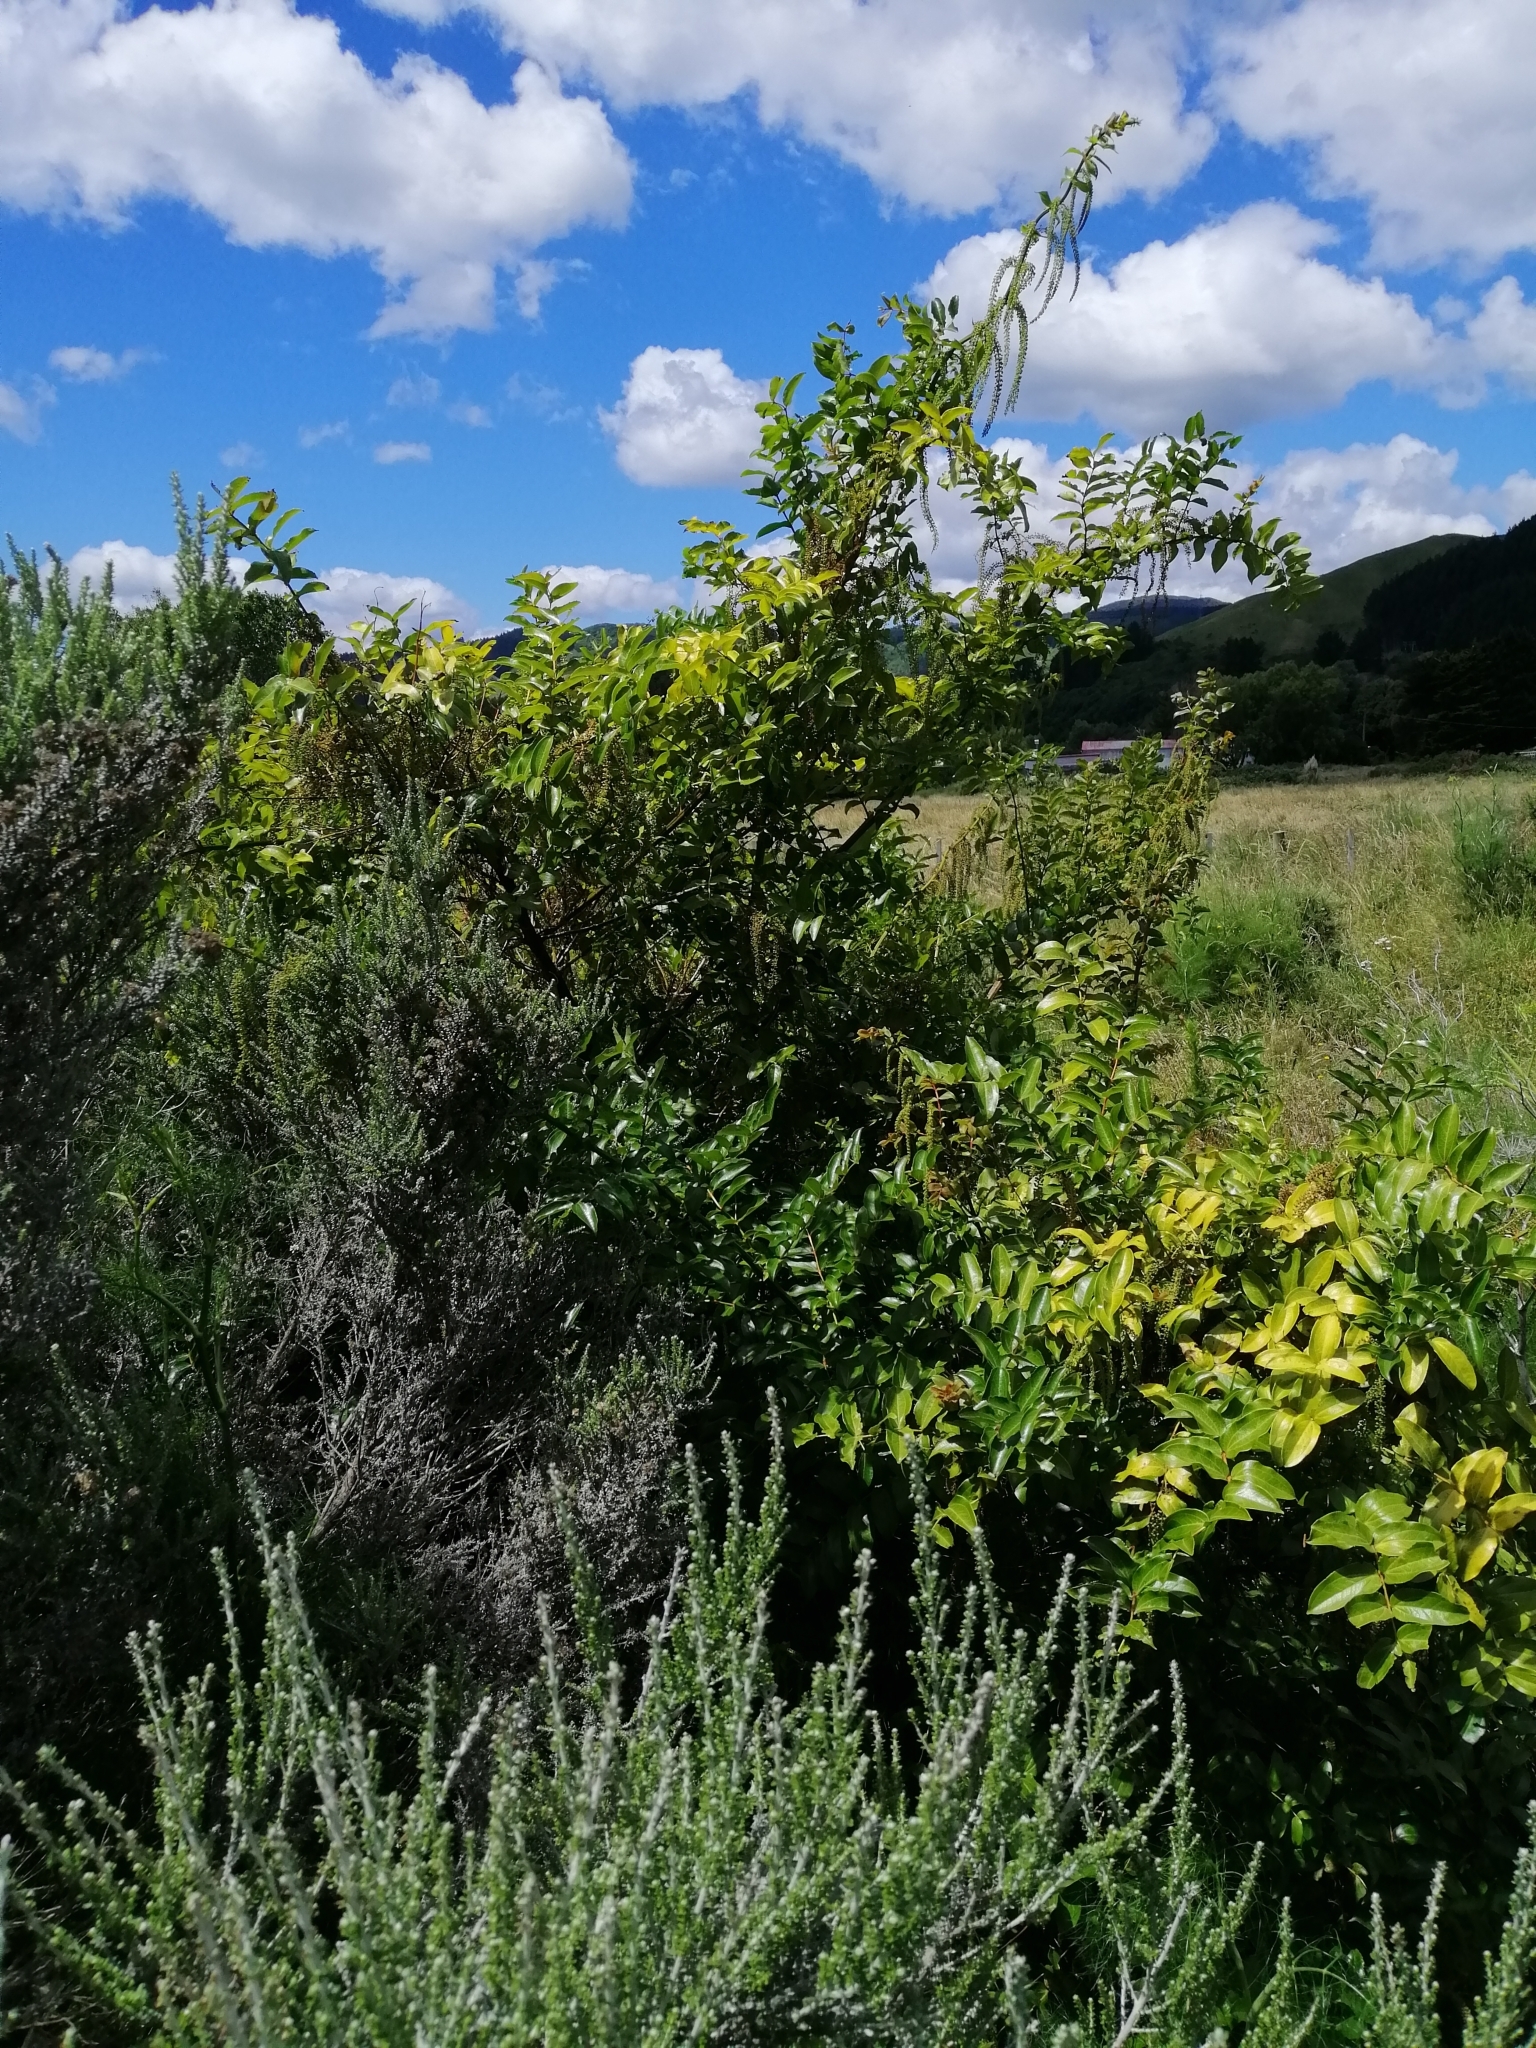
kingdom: Plantae
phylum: Tracheophyta
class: Magnoliopsida
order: Cucurbitales
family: Coriariaceae
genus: Coriaria
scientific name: Coriaria arborea
